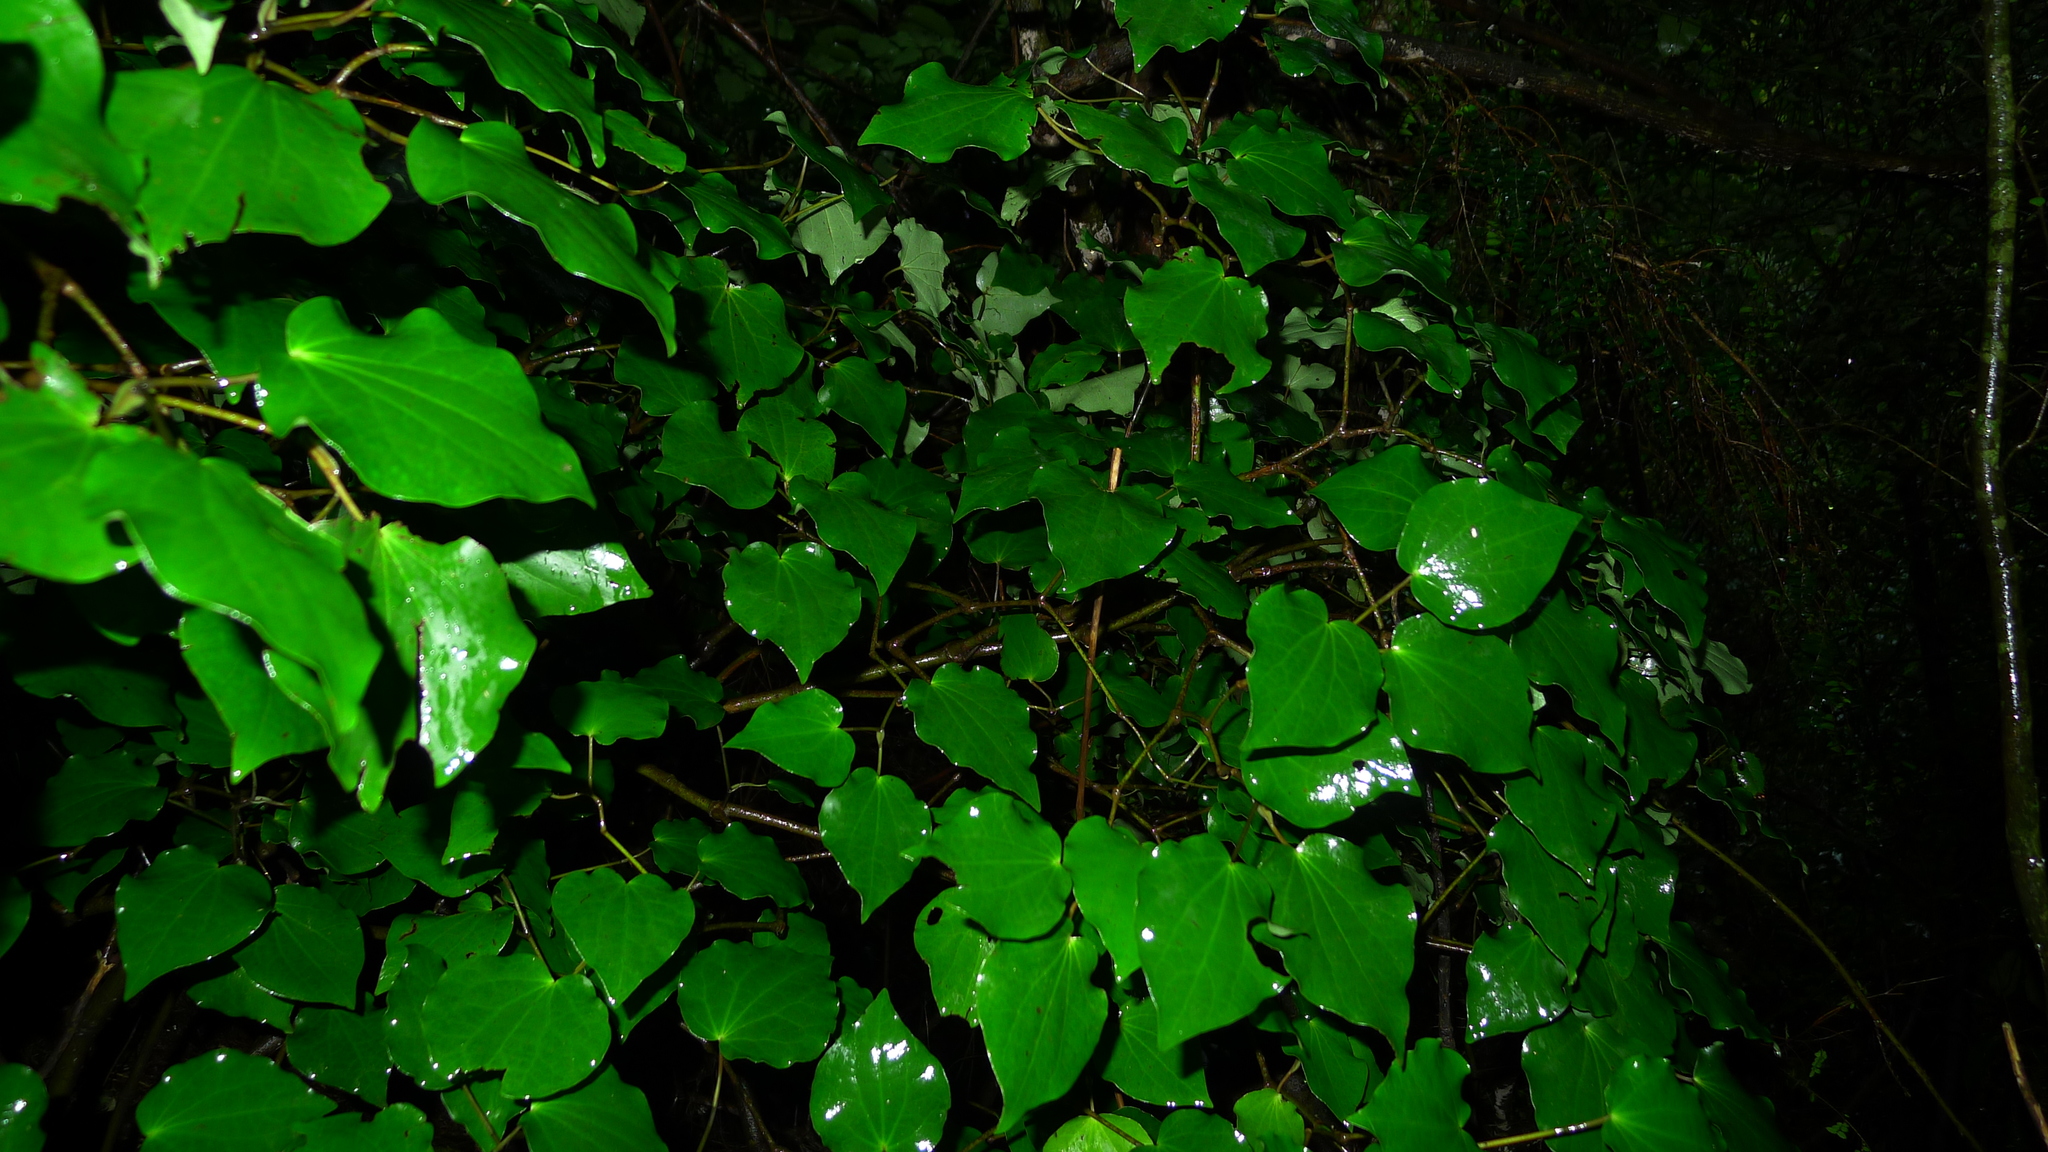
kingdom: Plantae
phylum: Tracheophyta
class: Magnoliopsida
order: Piperales
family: Piperaceae
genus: Macropiper
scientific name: Macropiper excelsum
